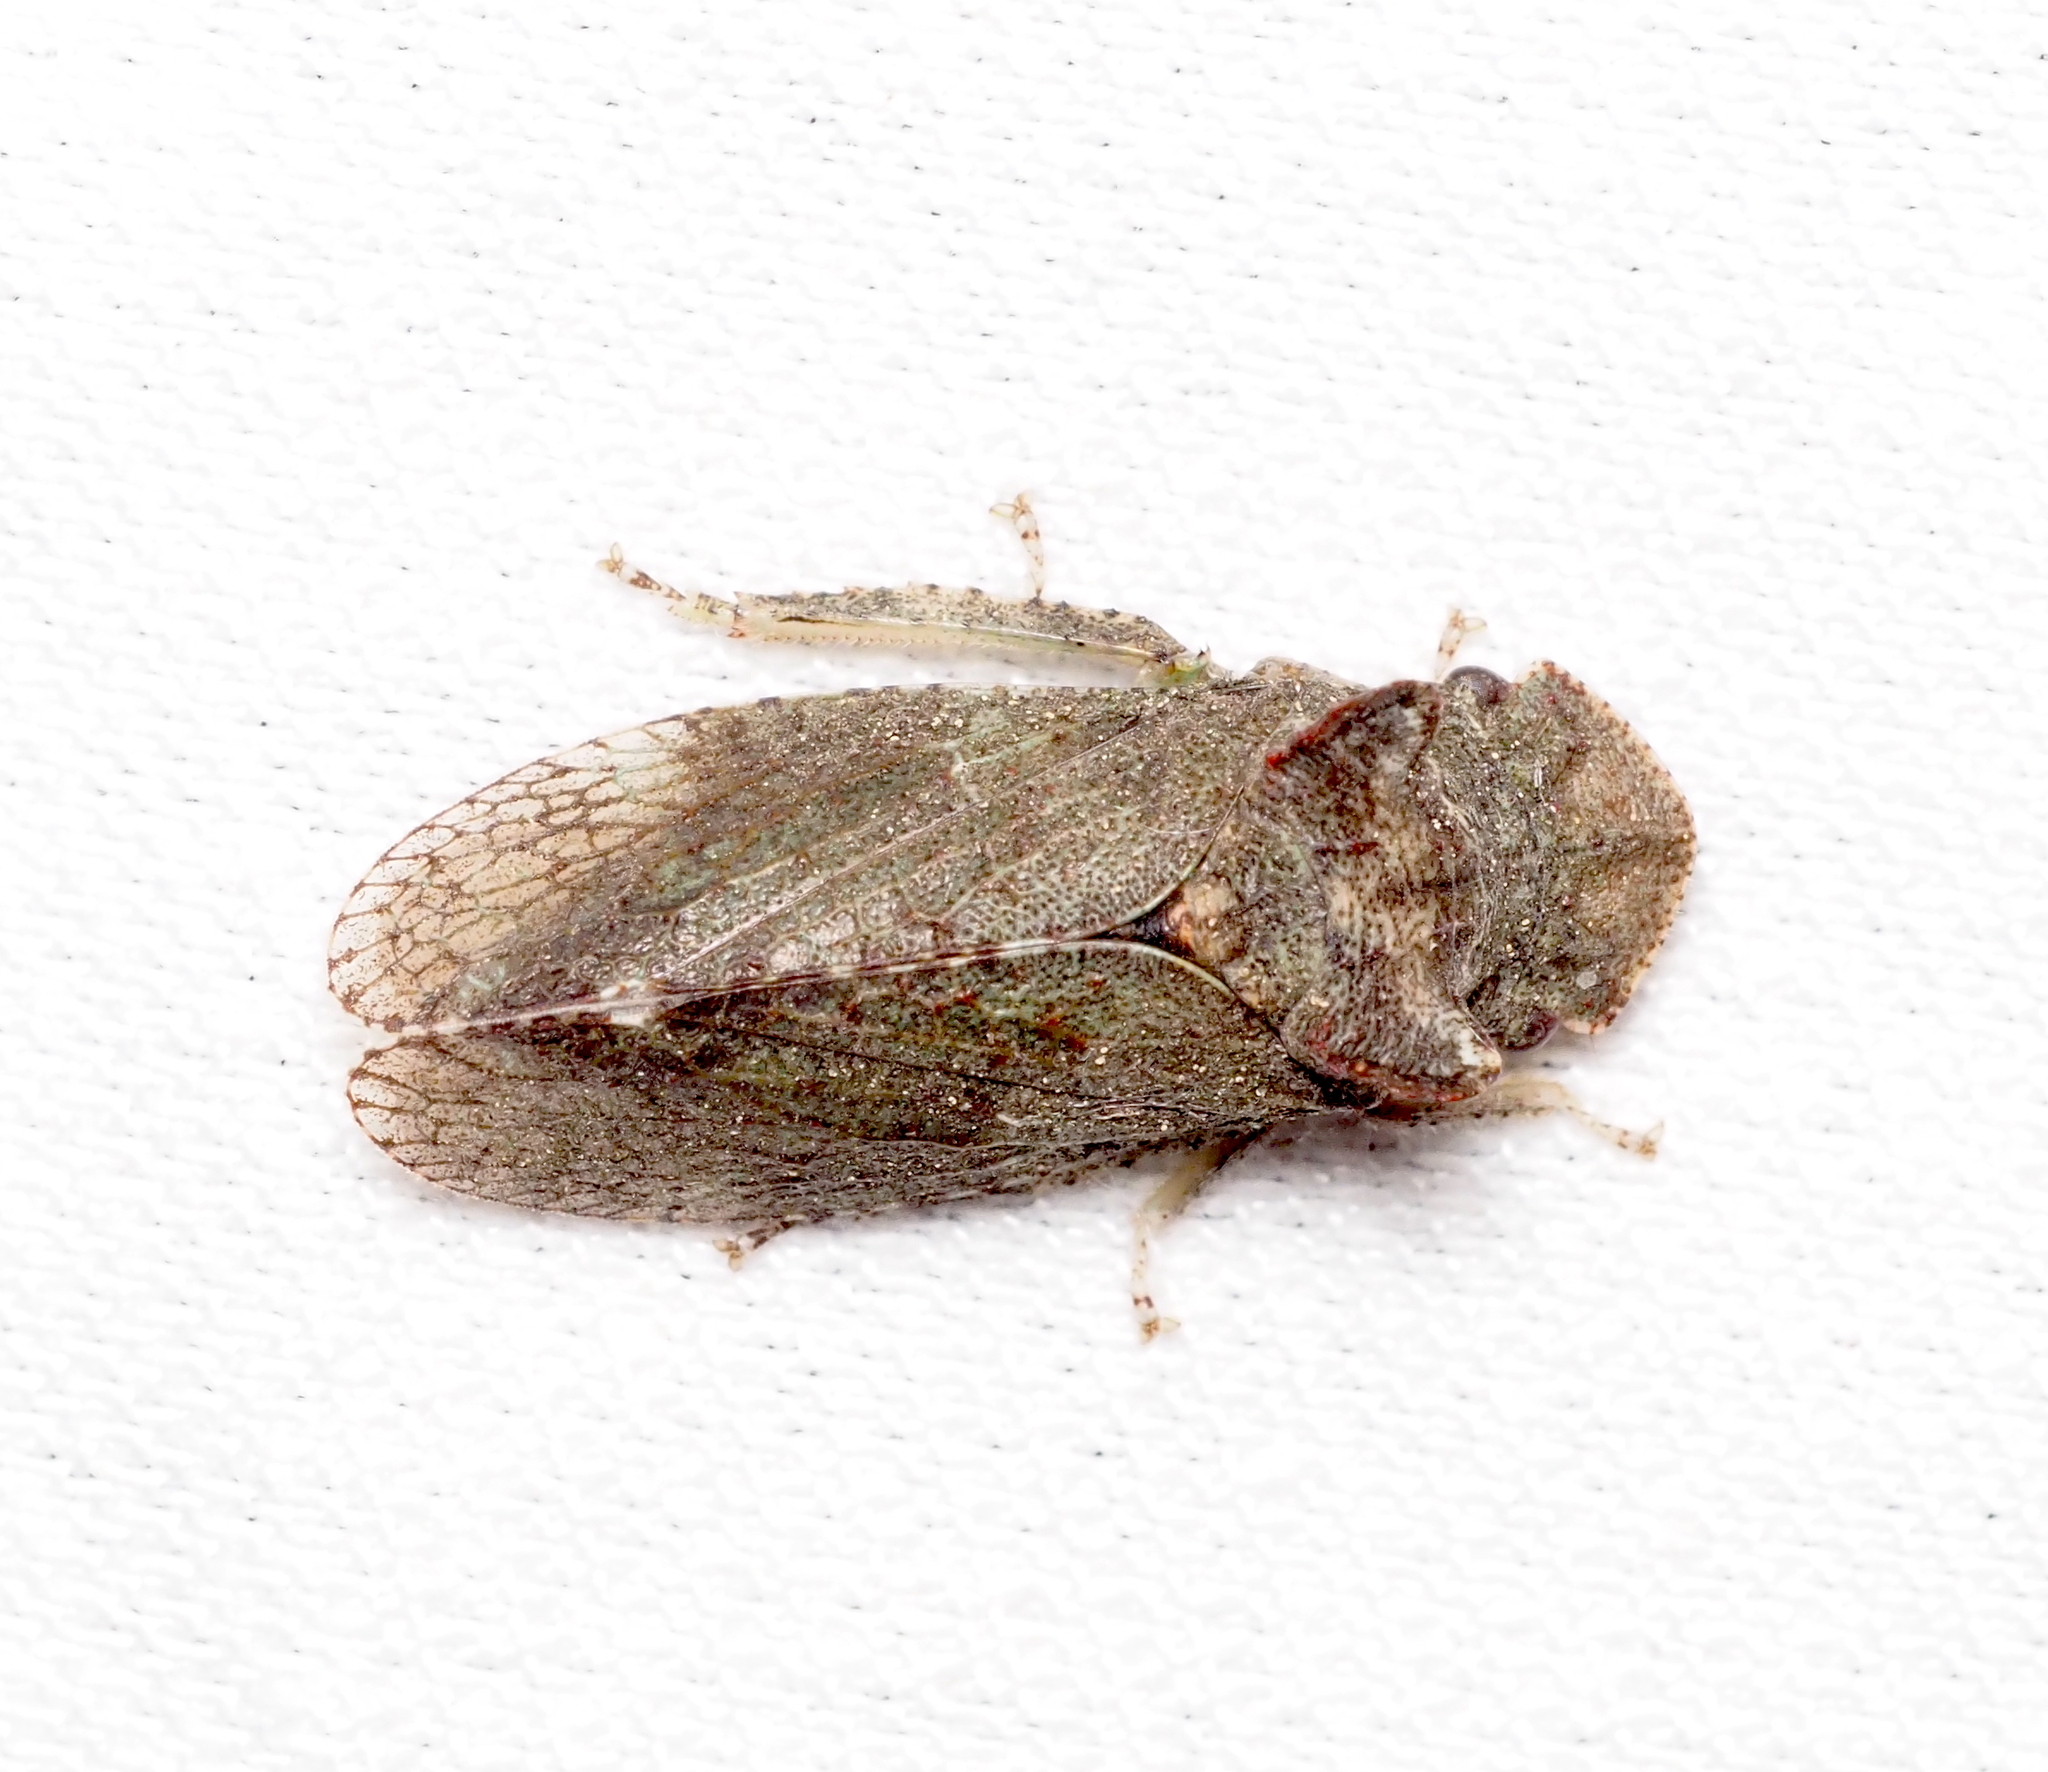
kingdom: Animalia
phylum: Arthropoda
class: Insecta
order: Hemiptera
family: Cicadellidae
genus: Ledra
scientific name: Ledra aurita
